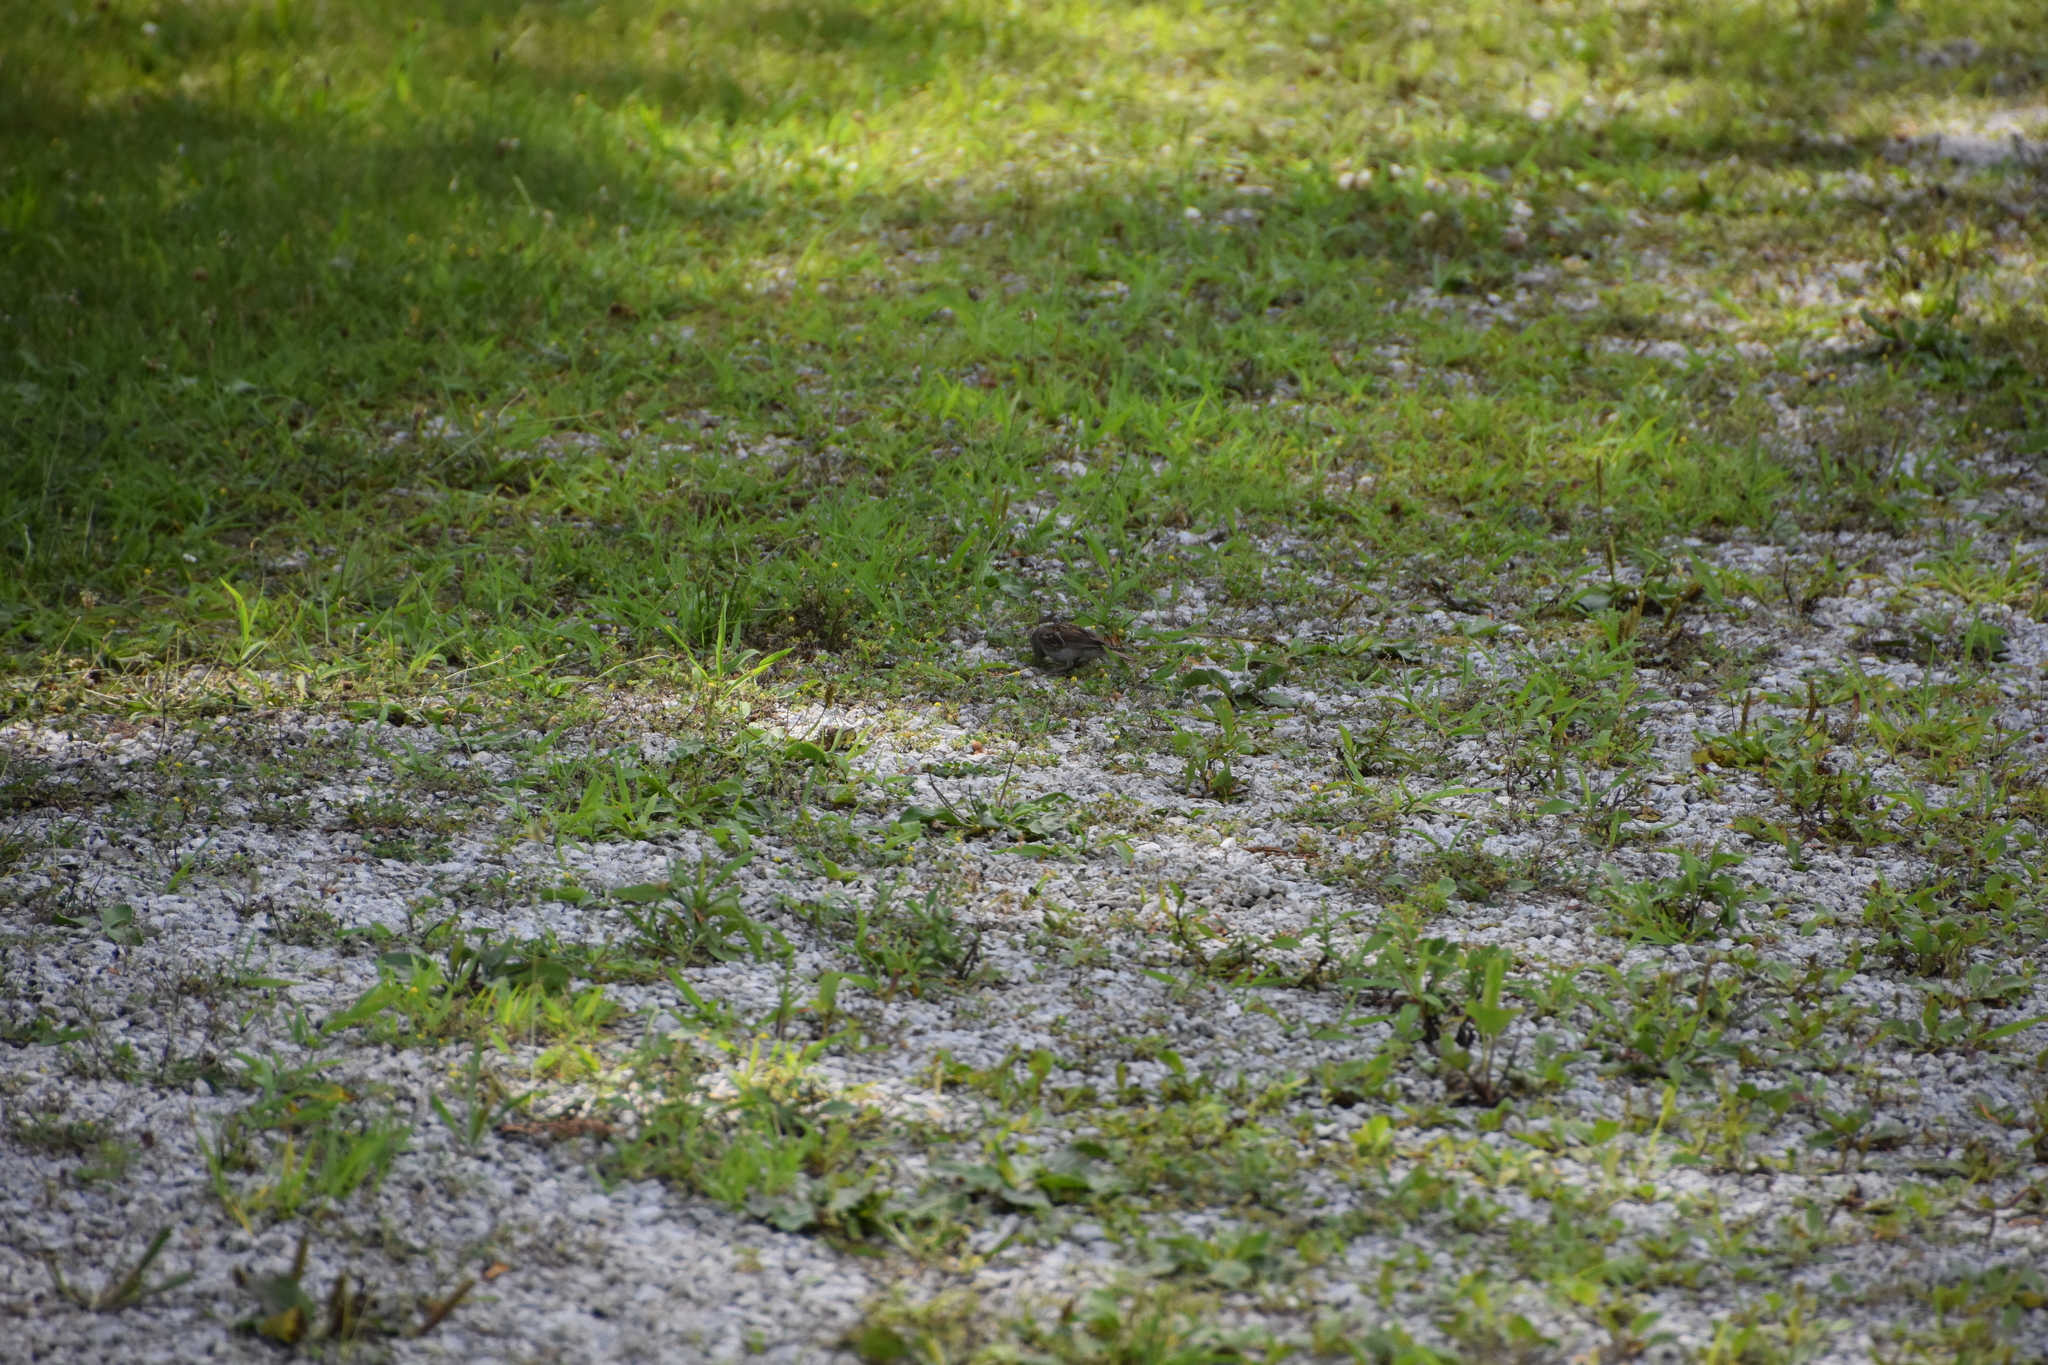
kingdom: Animalia
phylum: Chordata
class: Aves
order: Passeriformes
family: Passerellidae
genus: Spizella
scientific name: Spizella passerina
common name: Chipping sparrow
